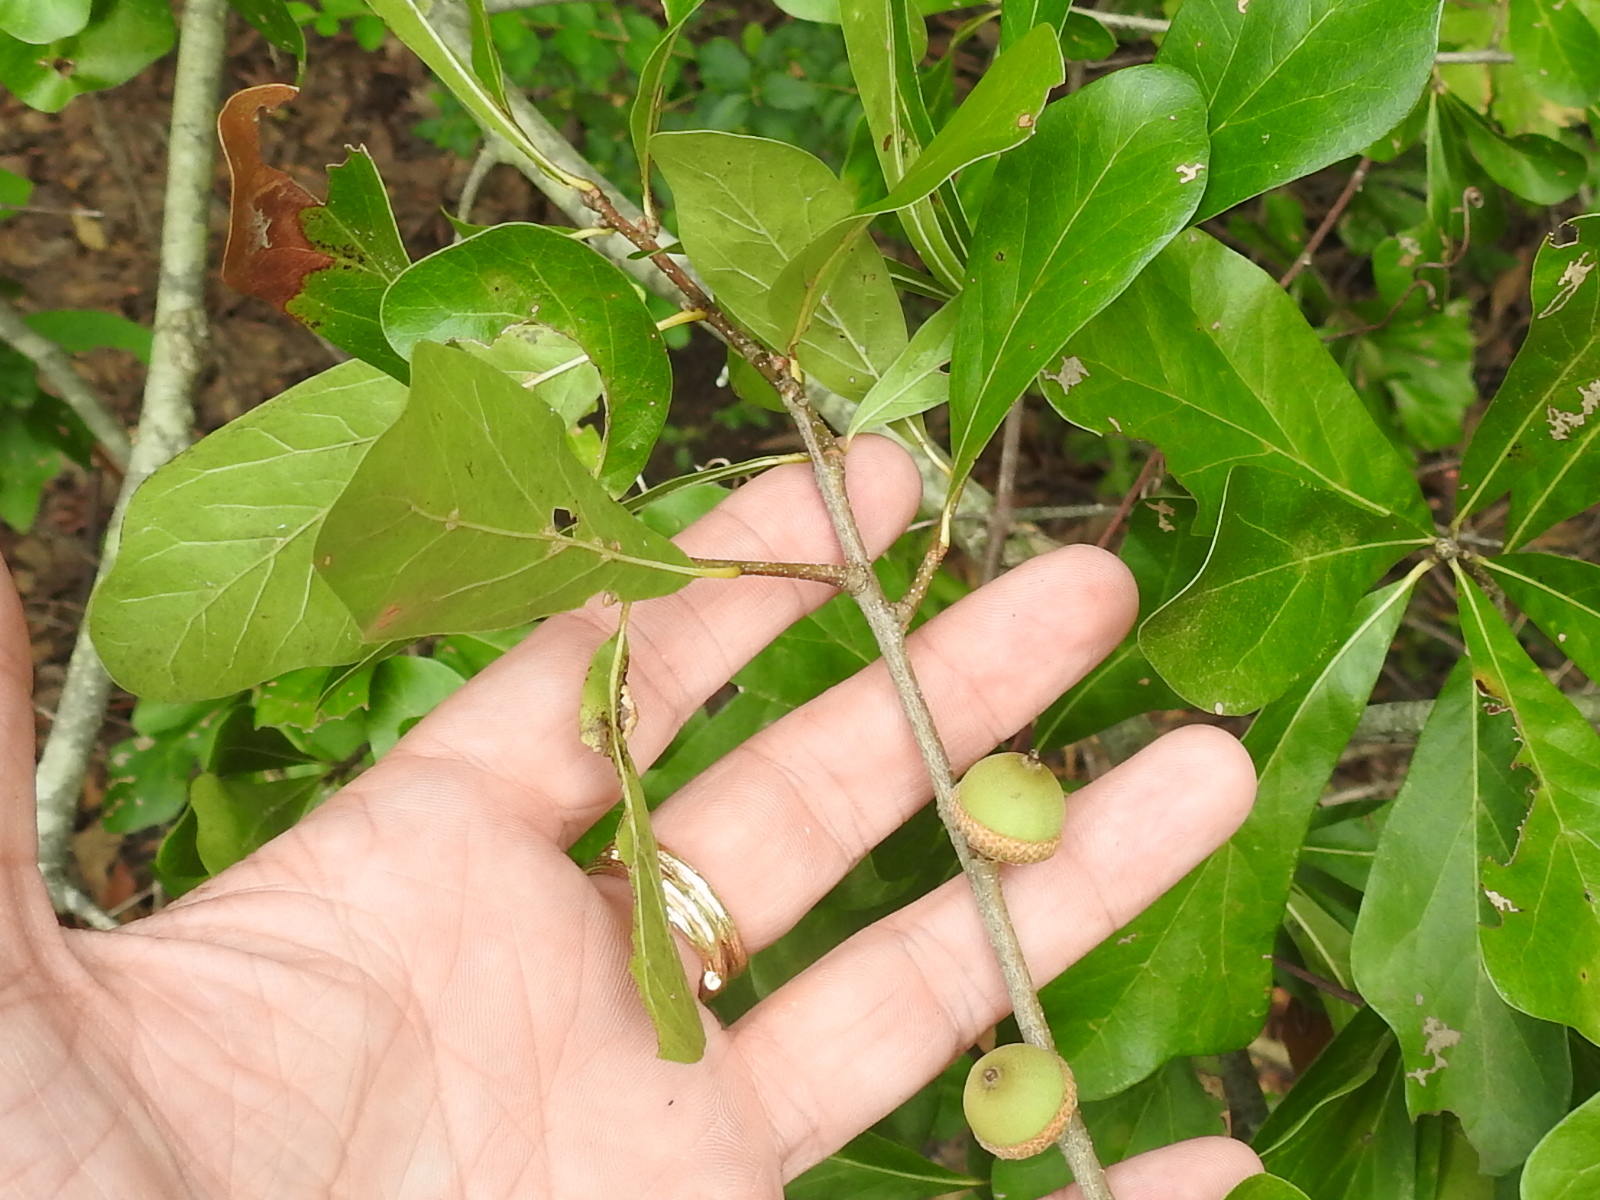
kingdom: Plantae
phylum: Tracheophyta
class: Magnoliopsida
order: Fagales
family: Fagaceae
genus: Quercus
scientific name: Quercus nigra
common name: Water oak
